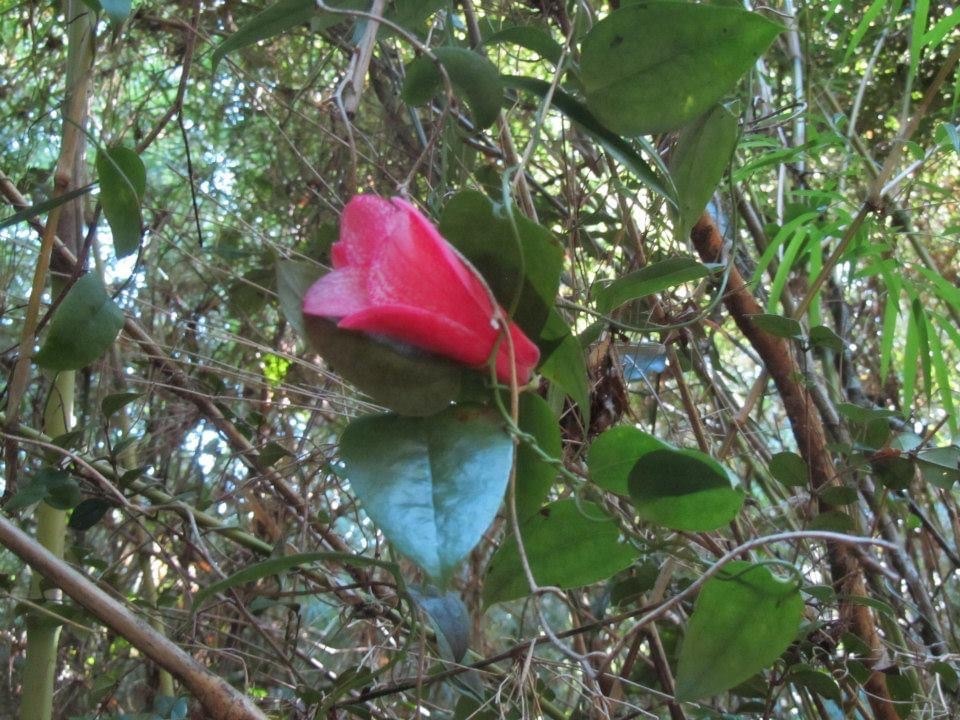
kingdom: Plantae
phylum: Tracheophyta
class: Liliopsida
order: Liliales
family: Philesiaceae
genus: Lapageria
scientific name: Lapageria rosea
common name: Chilean-bellflower
